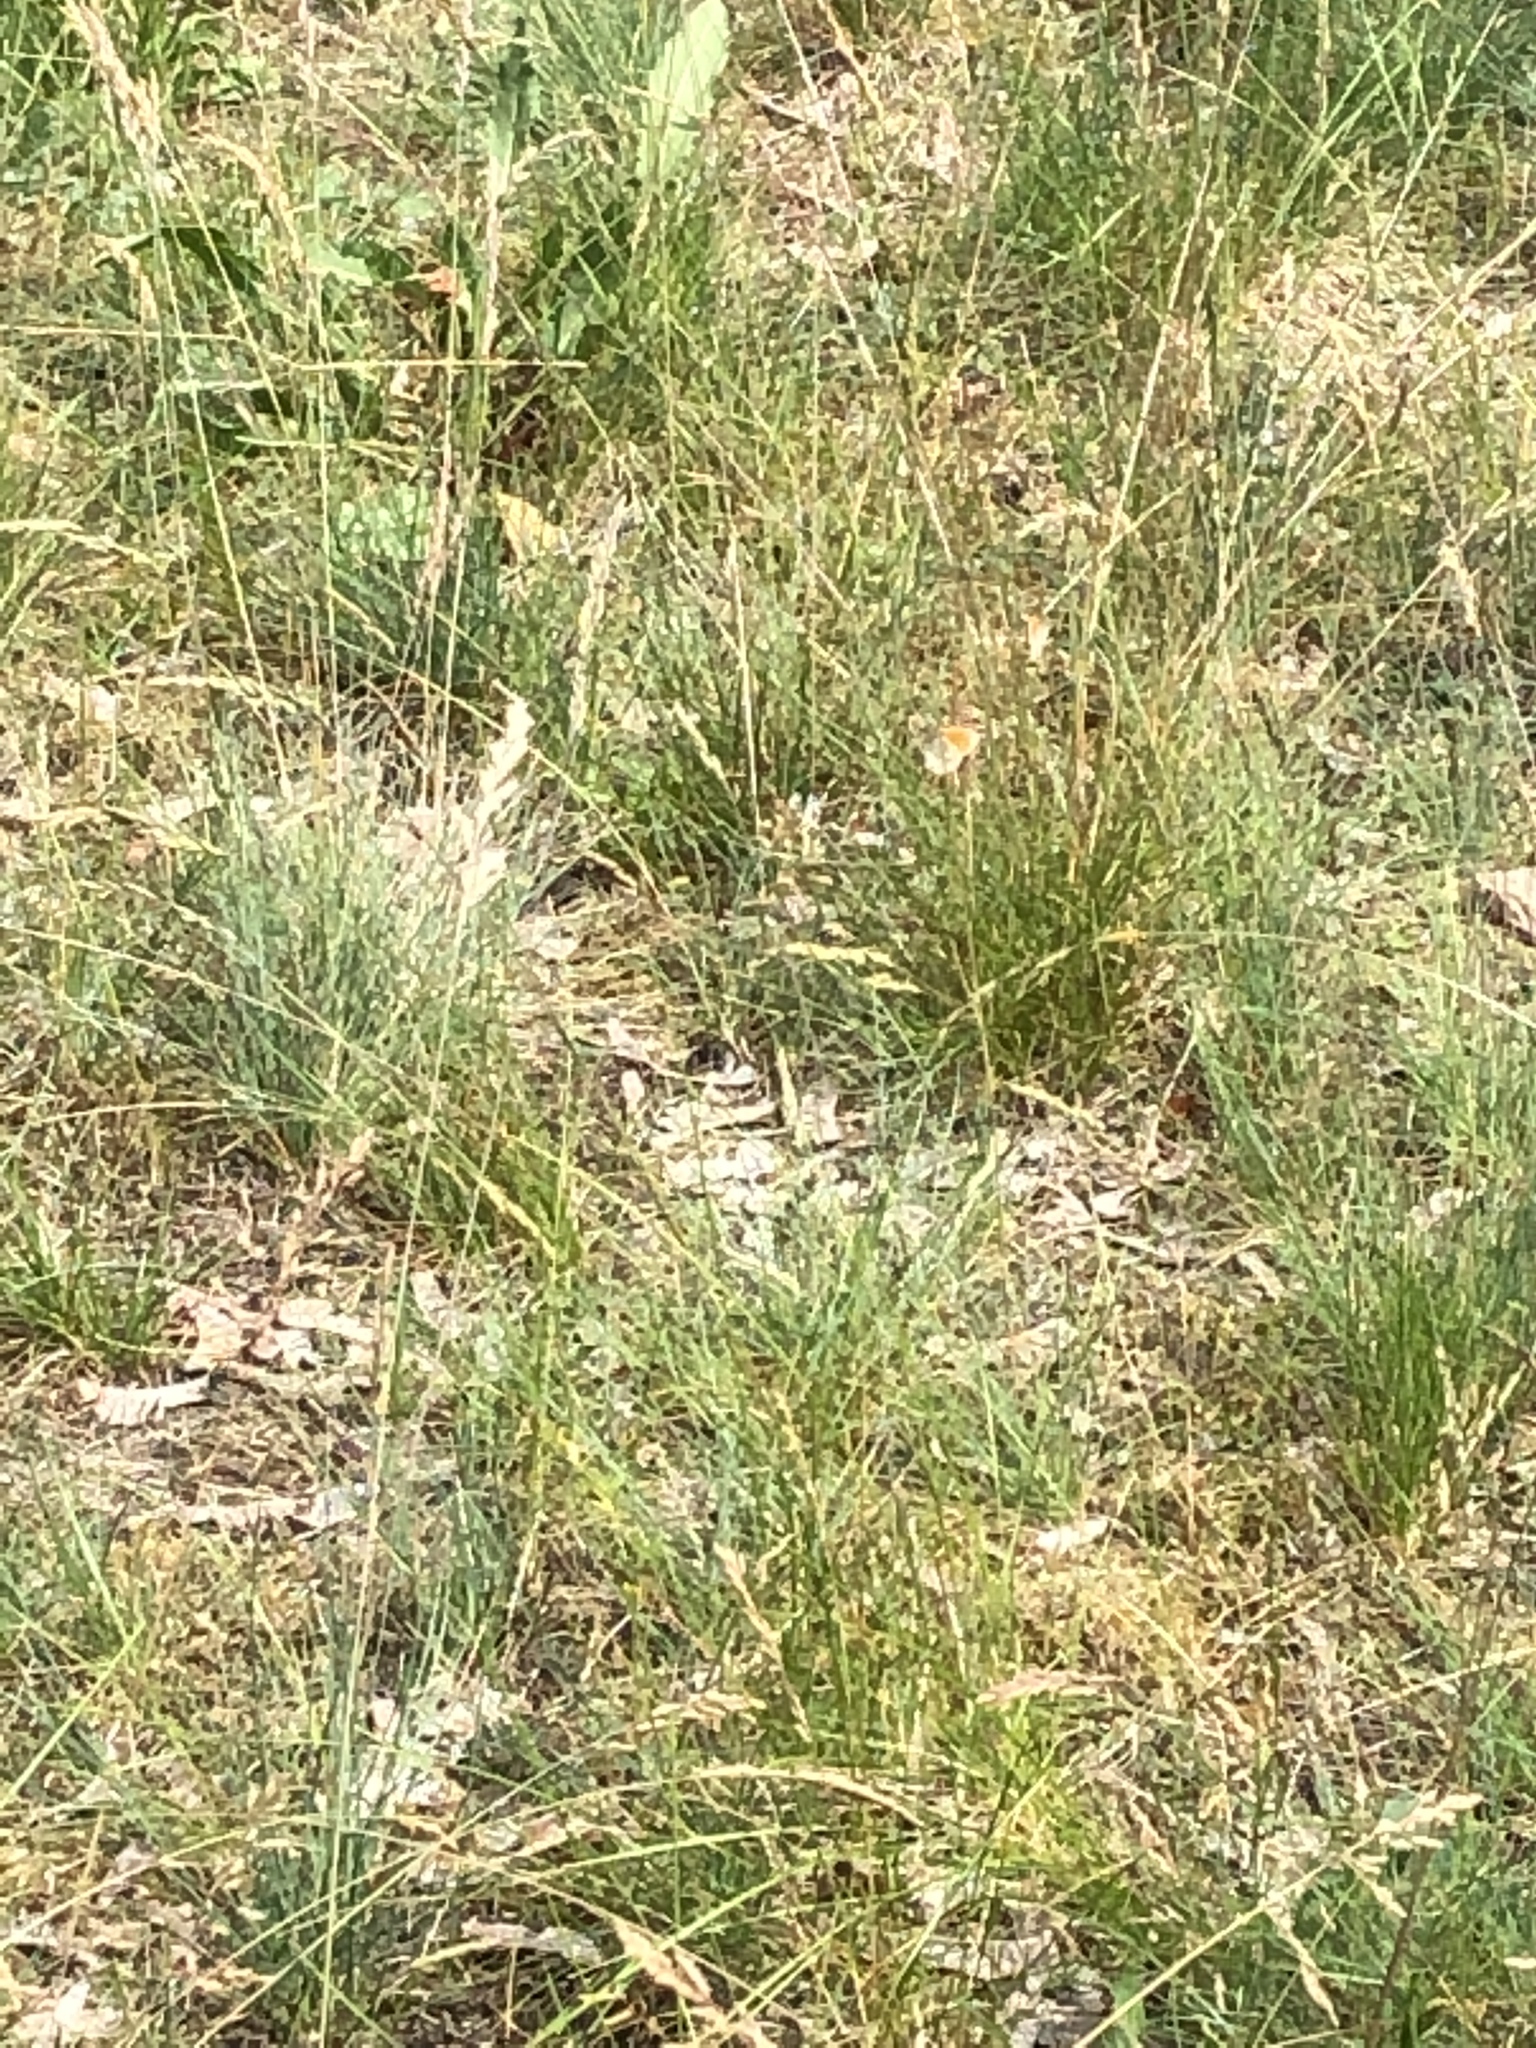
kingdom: Animalia
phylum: Arthropoda
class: Insecta
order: Lepidoptera
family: Nymphalidae
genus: Coenonympha
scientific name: Coenonympha pamphilus
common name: Small heath
